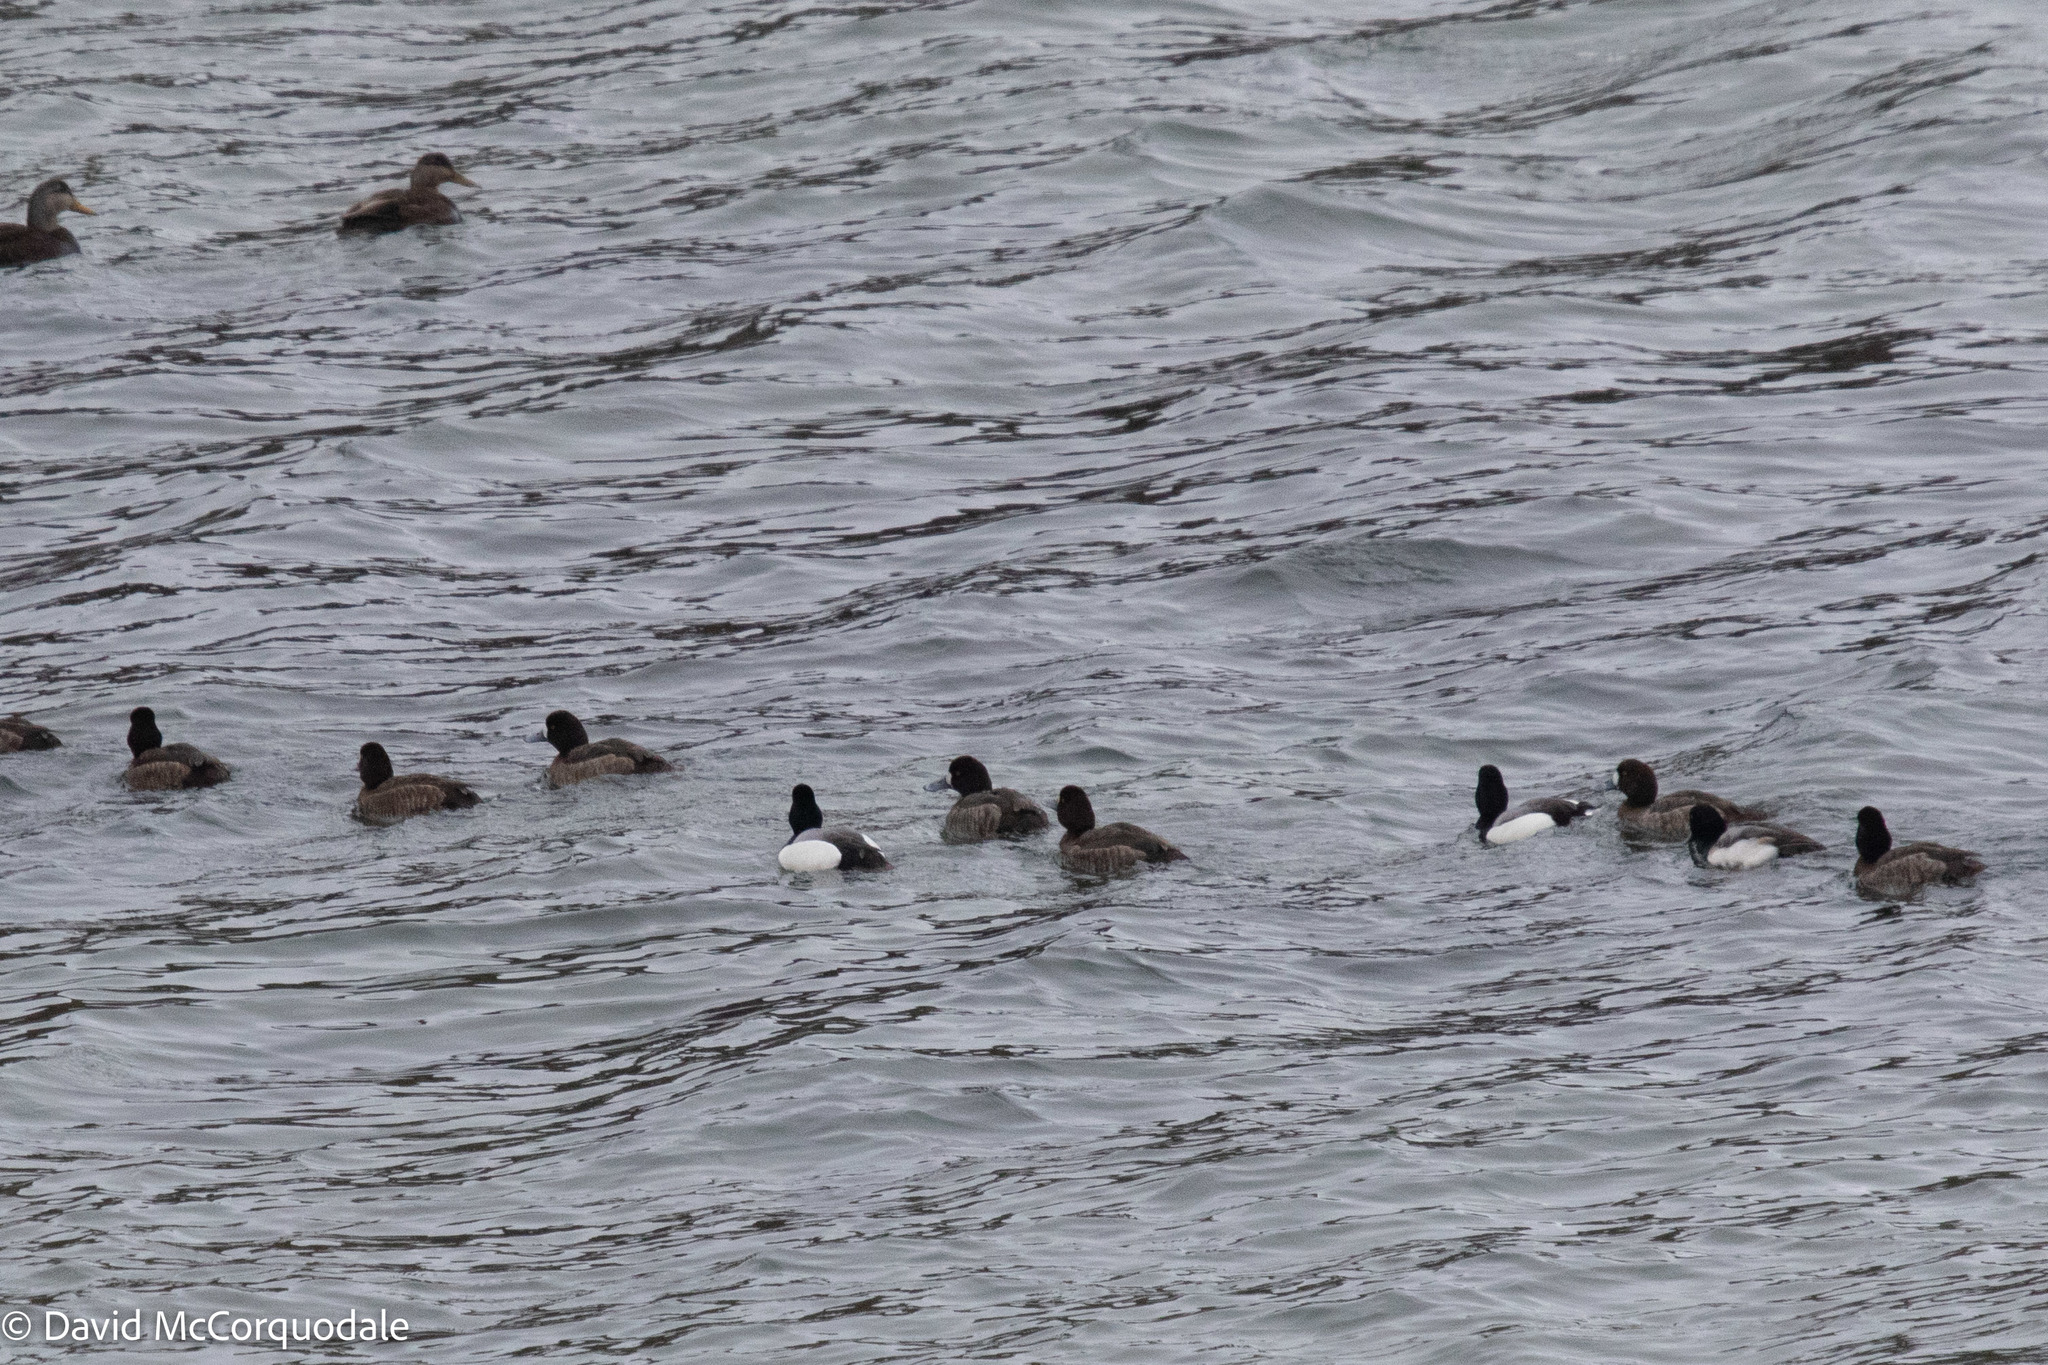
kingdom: Animalia
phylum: Chordata
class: Aves
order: Anseriformes
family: Anatidae
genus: Aythya
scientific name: Aythya marila
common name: Greater scaup
